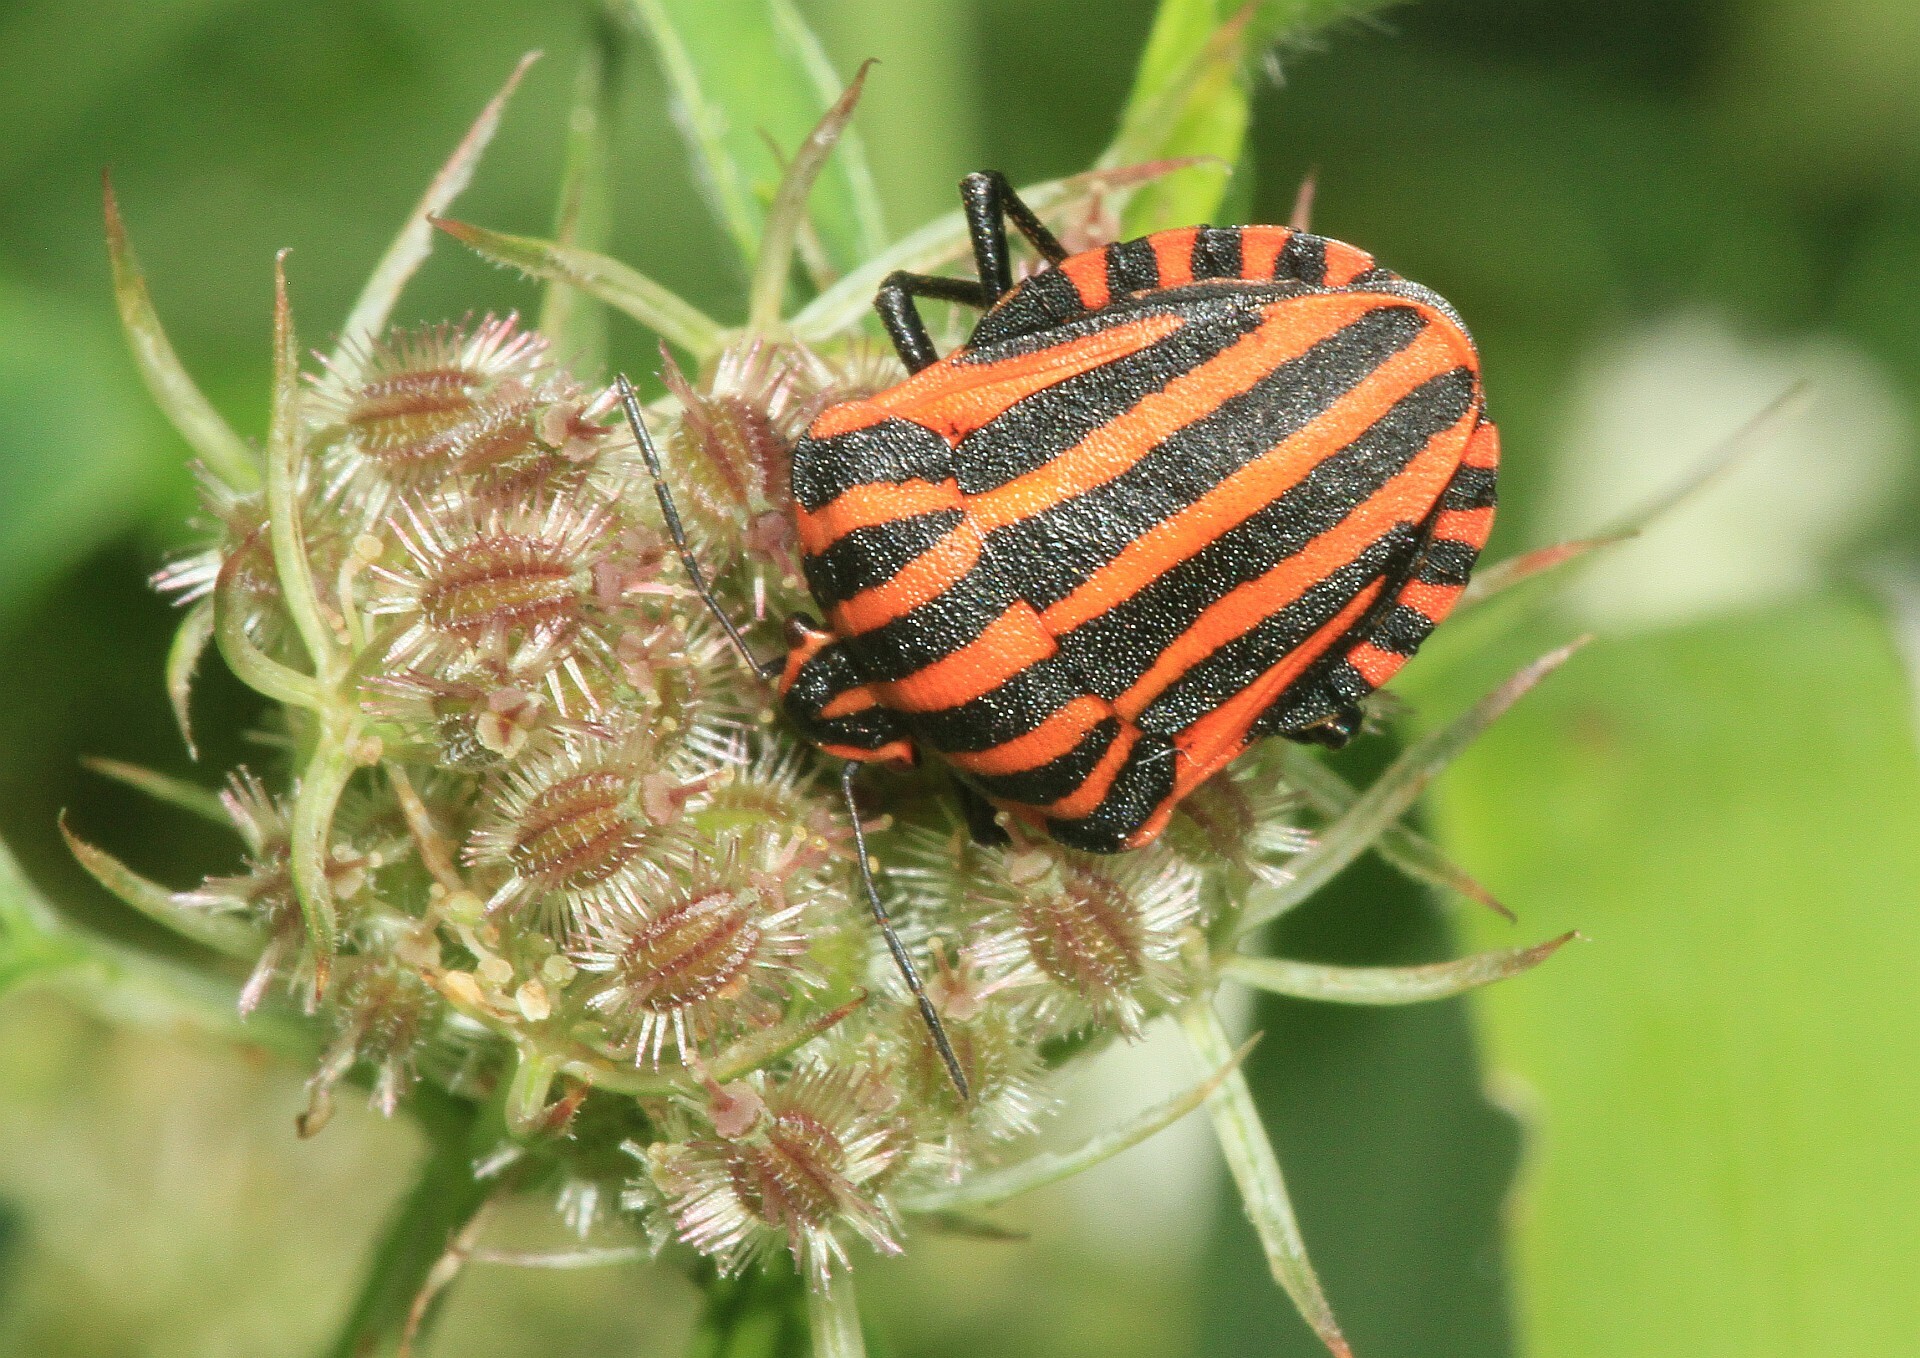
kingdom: Animalia
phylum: Arthropoda
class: Insecta
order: Hemiptera
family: Pentatomidae
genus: Graphosoma
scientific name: Graphosoma italicum
